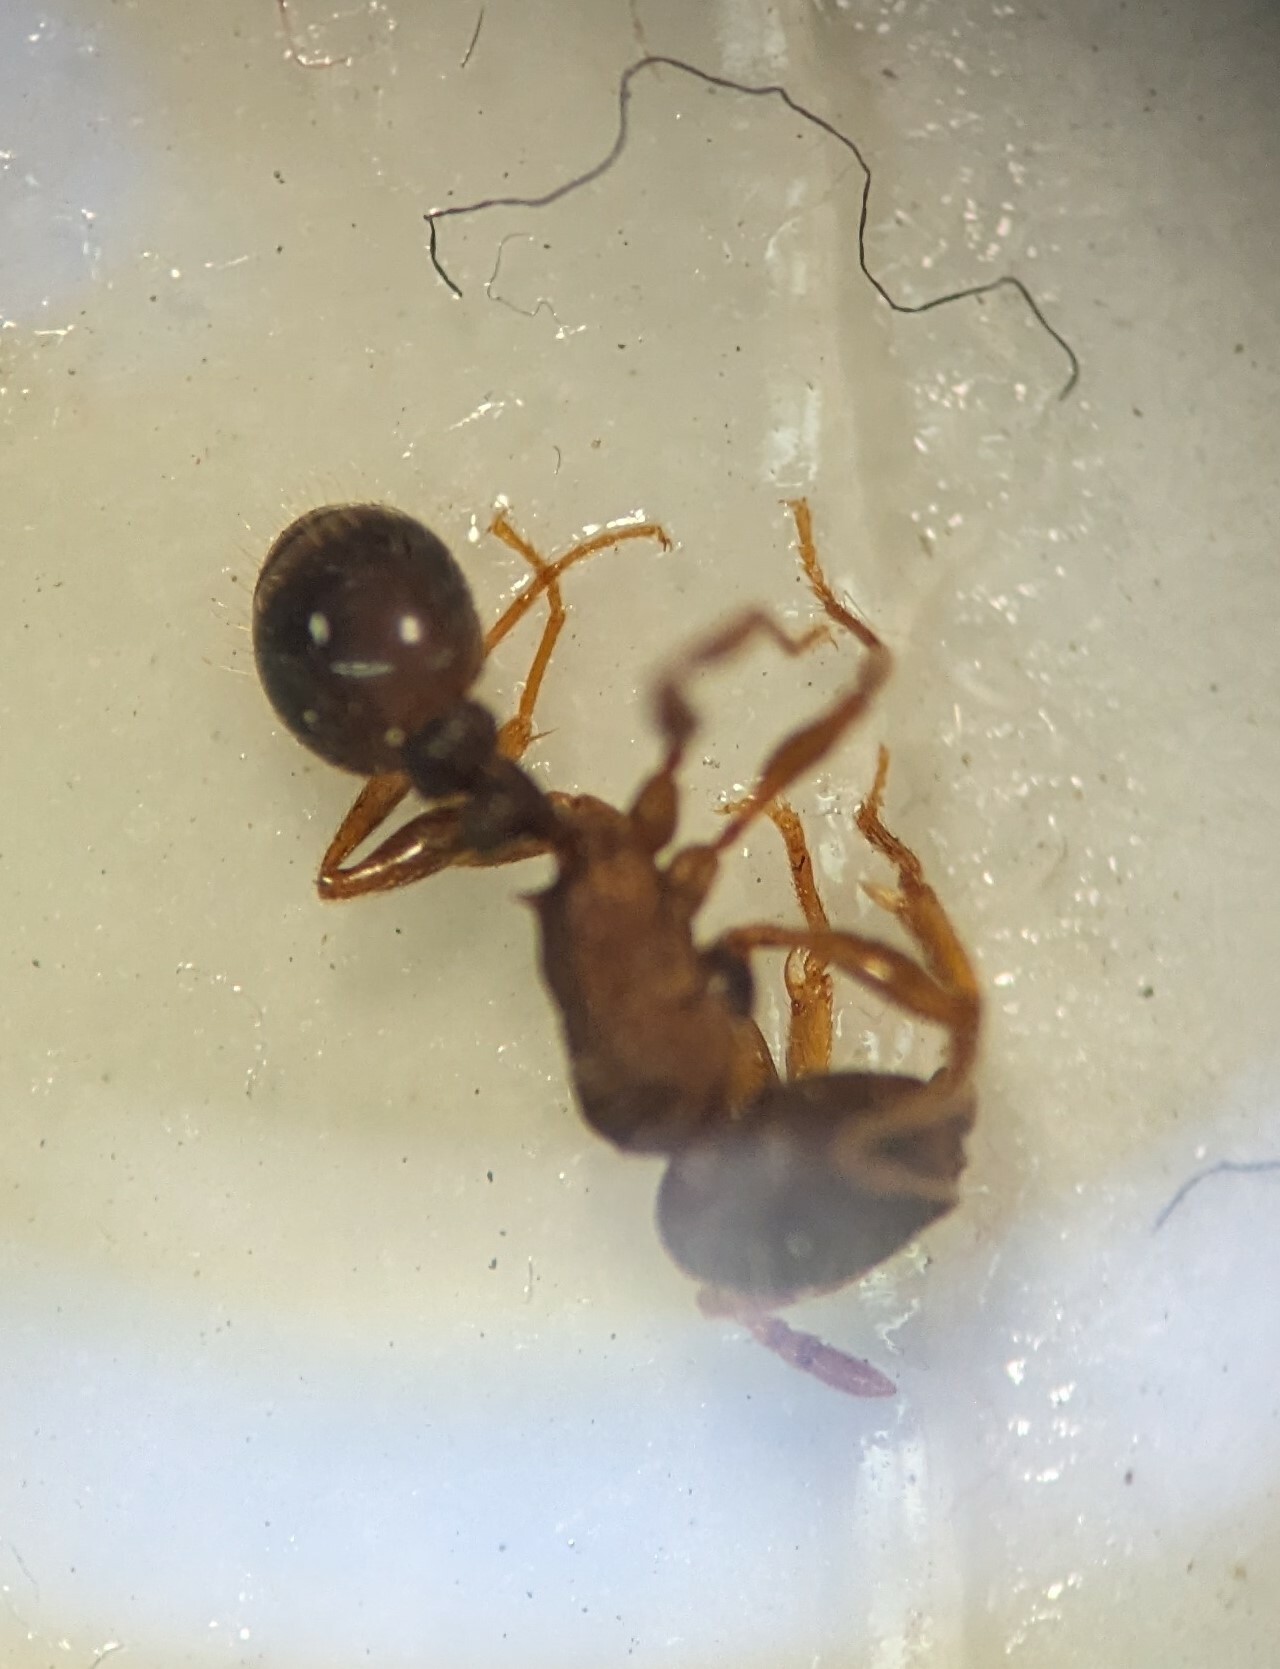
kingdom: Animalia
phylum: Arthropoda
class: Insecta
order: Hymenoptera
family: Formicidae
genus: Tetramorium
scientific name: Tetramorium immigrans
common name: Pavement ant
